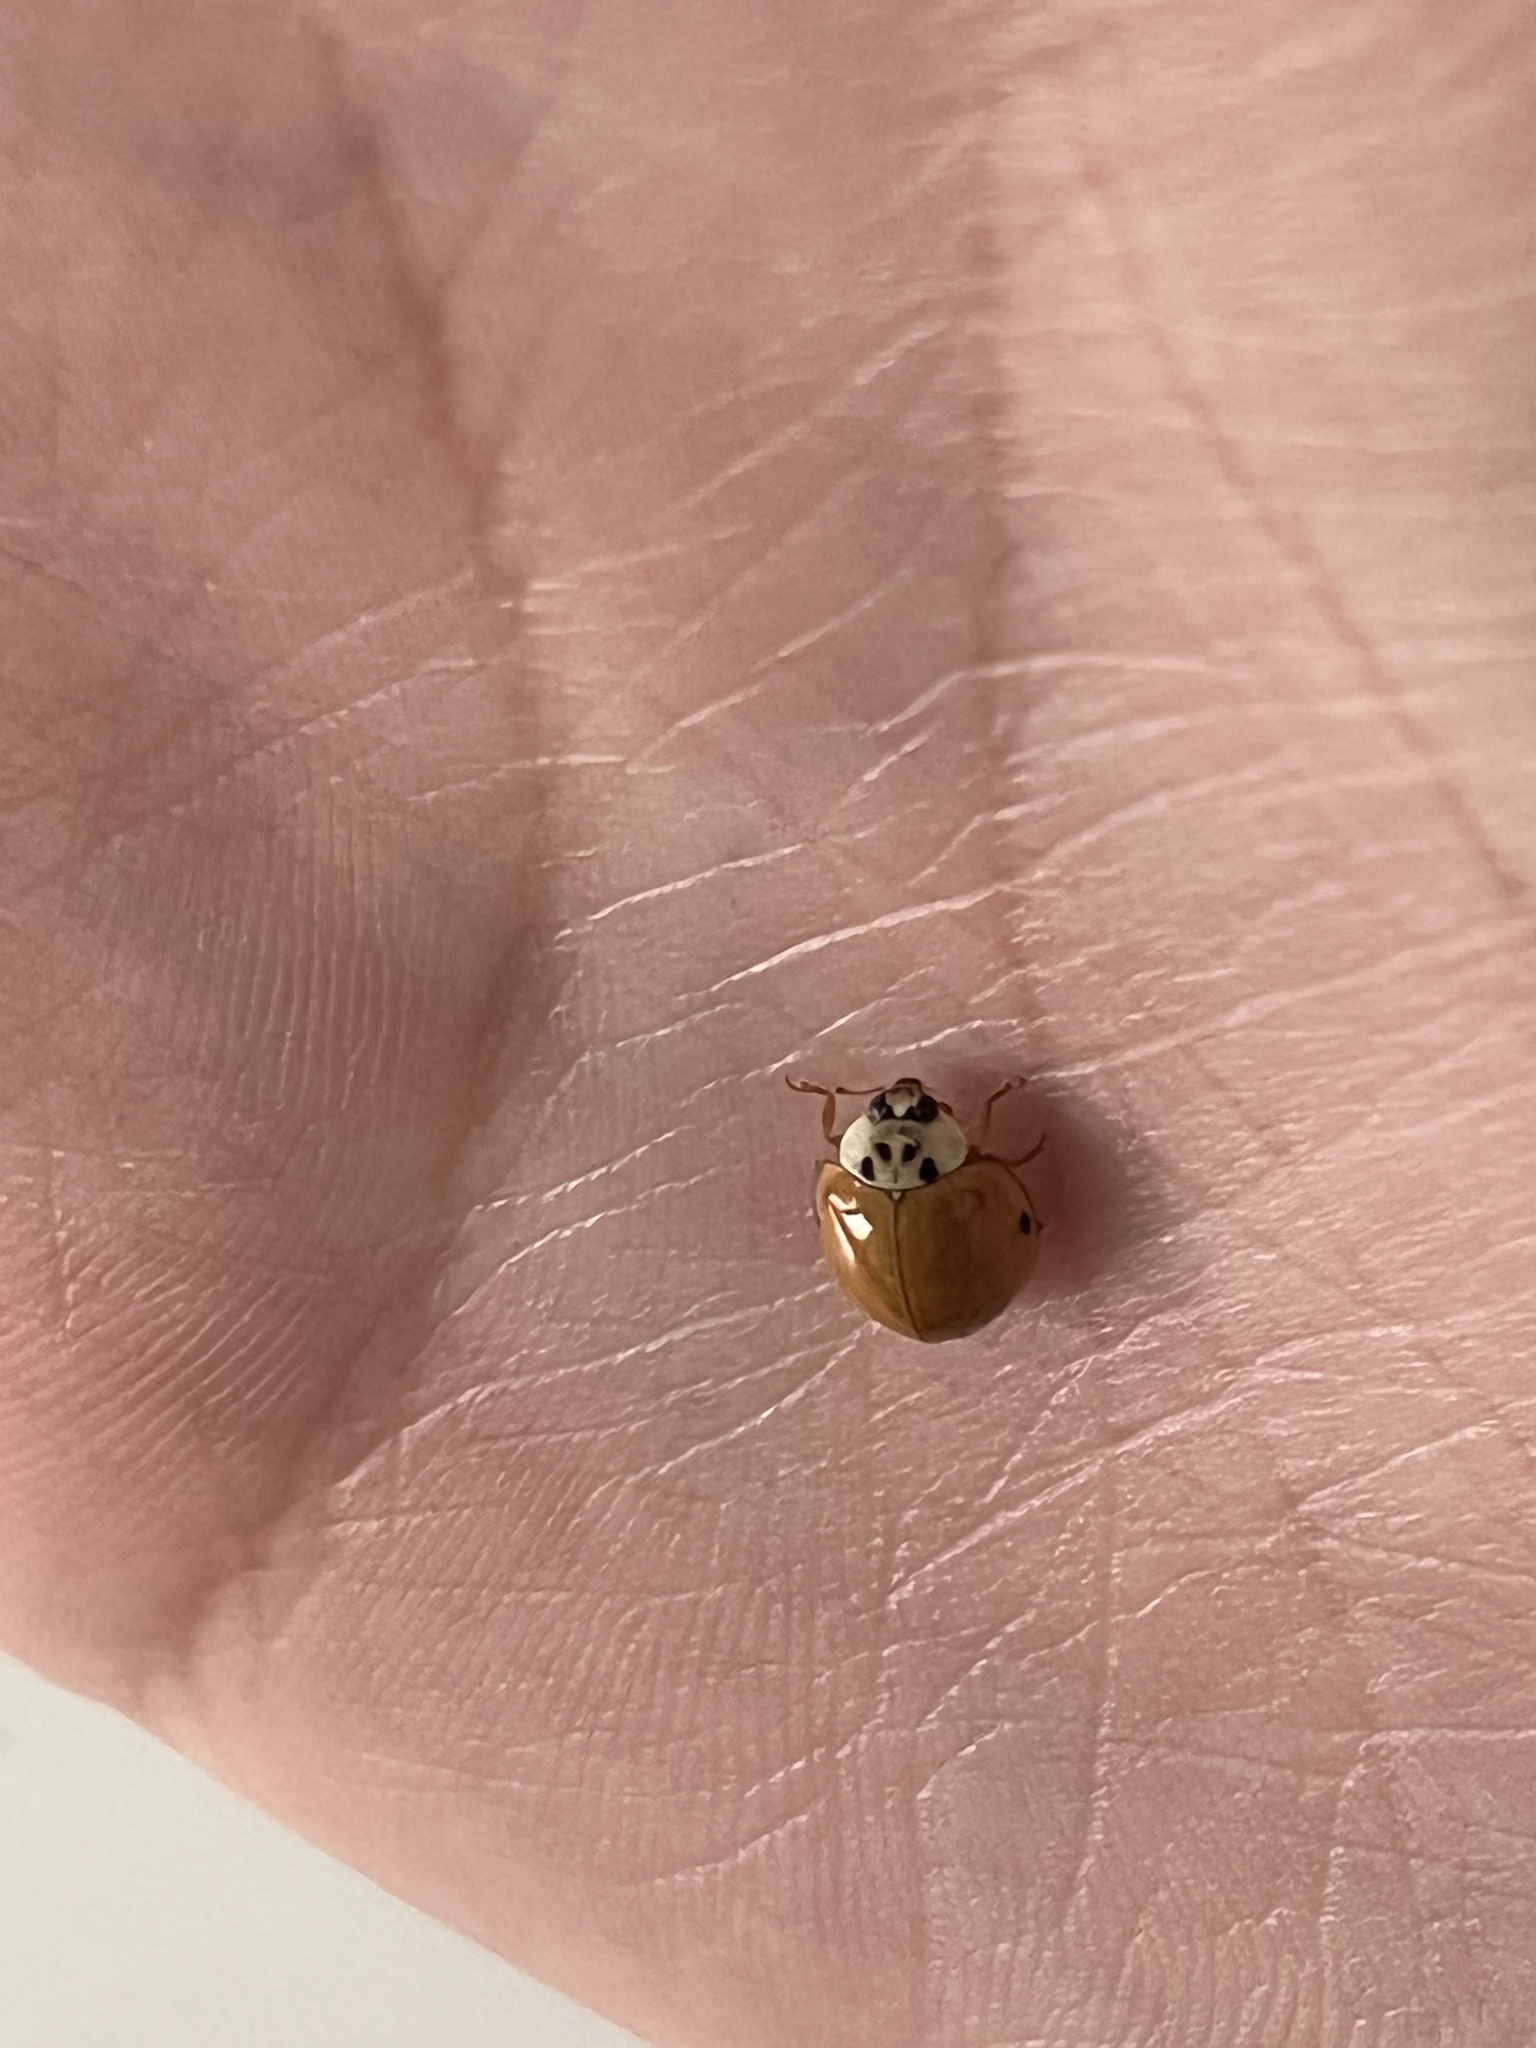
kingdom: Animalia
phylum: Arthropoda
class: Insecta
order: Coleoptera
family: Coccinellidae
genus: Harmonia
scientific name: Harmonia axyridis
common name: Harlequin ladybird
